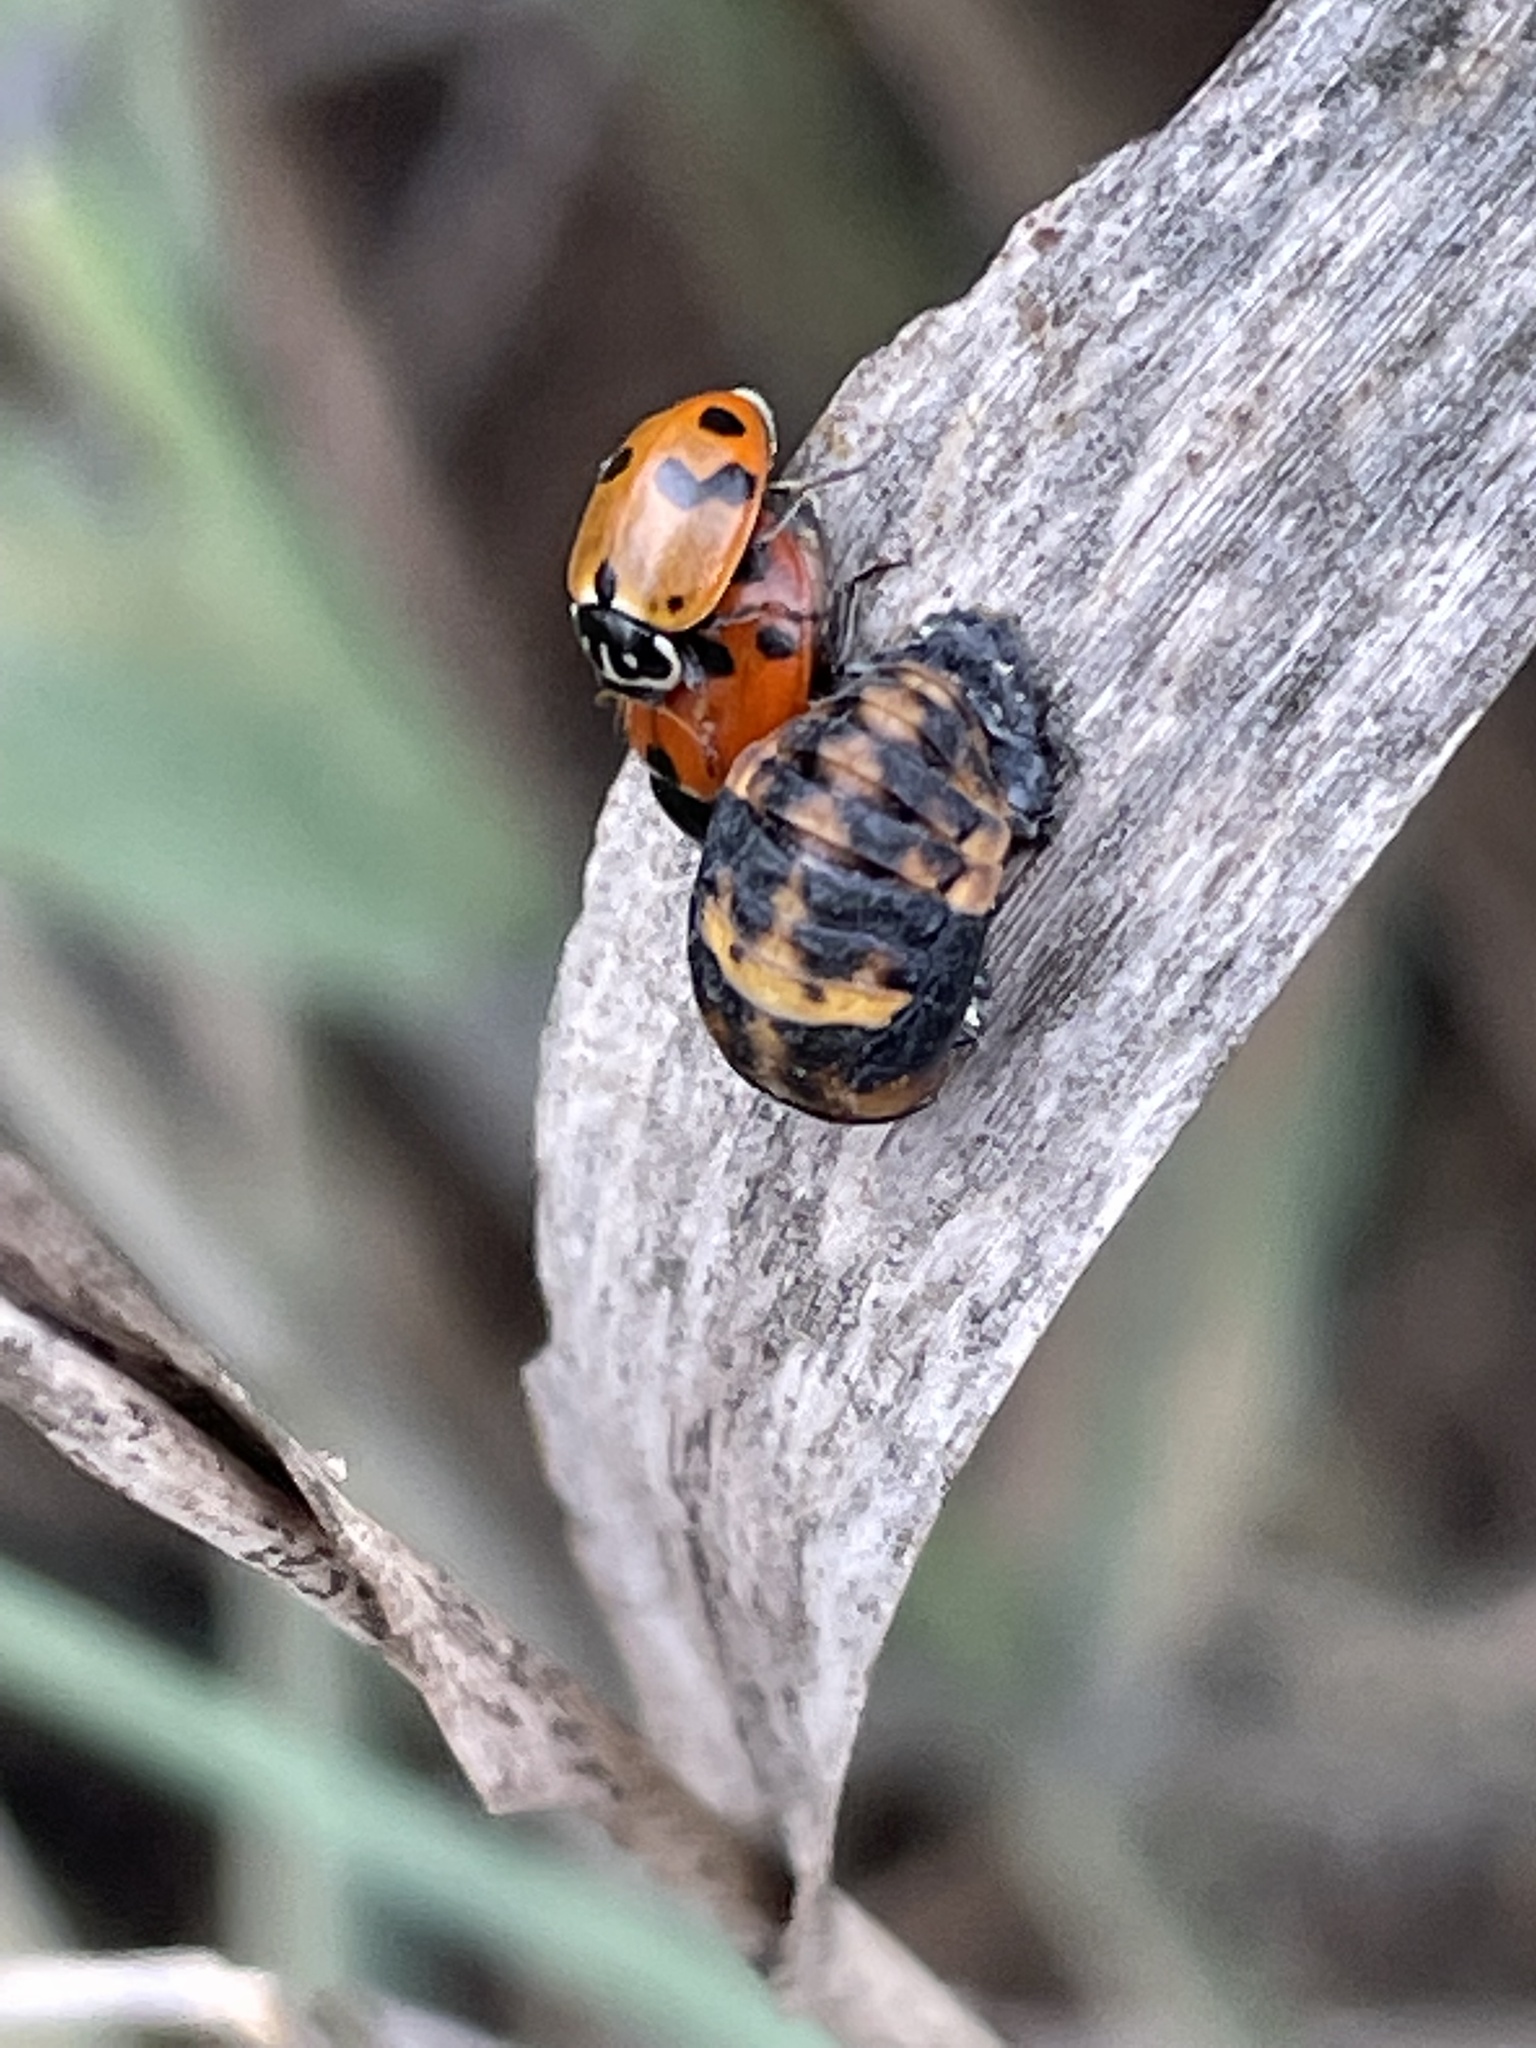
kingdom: Animalia
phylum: Arthropoda
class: Insecta
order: Coleoptera
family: Coccinellidae
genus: Hippodamia
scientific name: Hippodamia variegata
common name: Ladybird beetle
